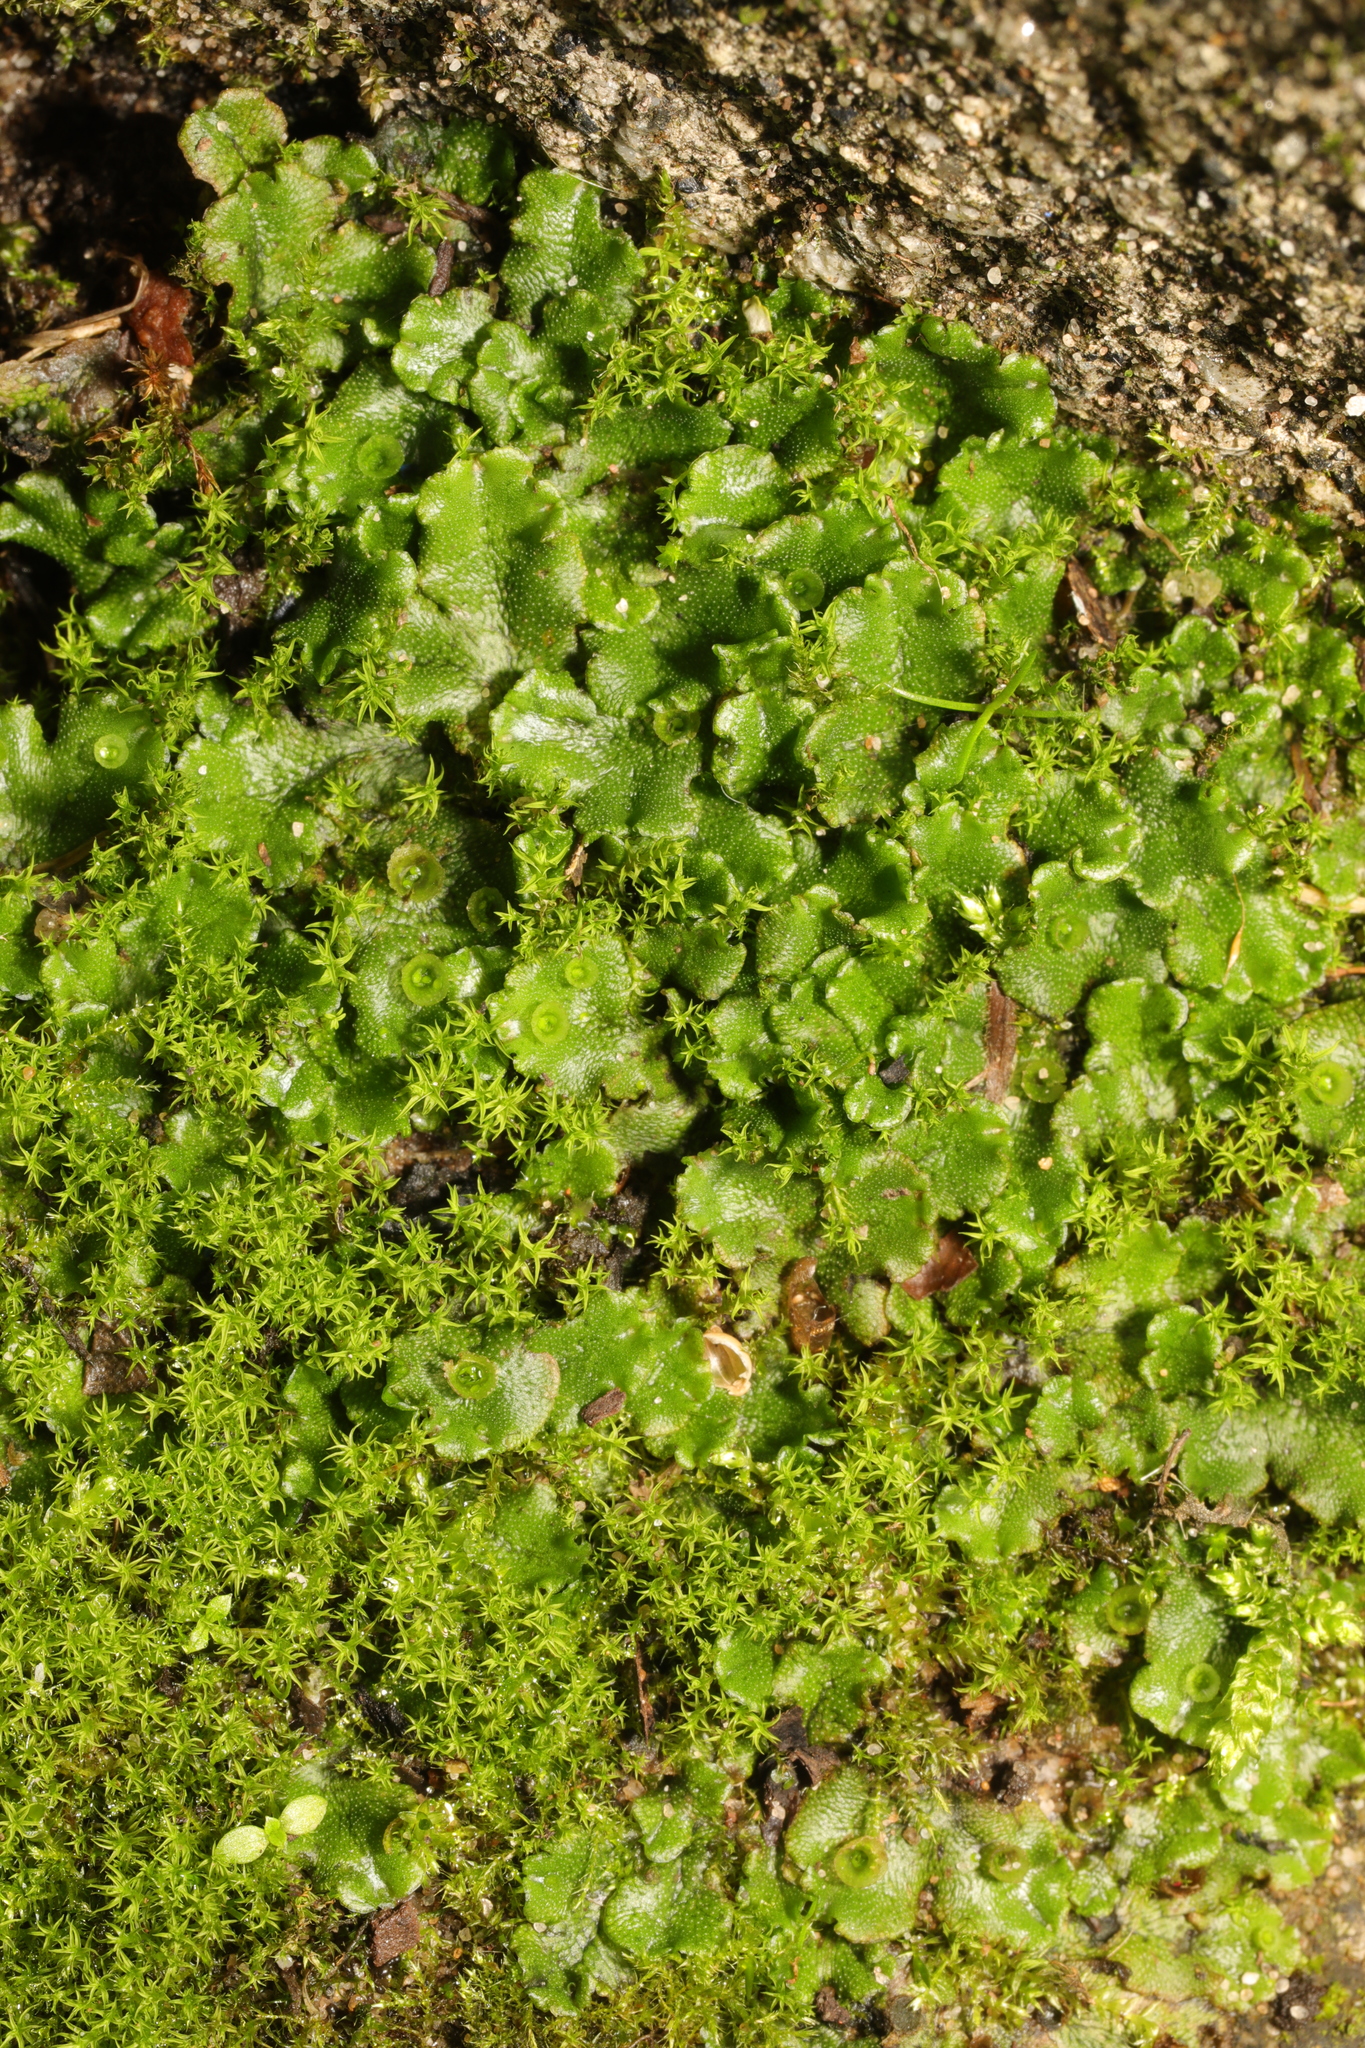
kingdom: Plantae
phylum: Marchantiophyta
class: Marchantiopsida
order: Marchantiales
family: Marchantiaceae
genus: Marchantia
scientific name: Marchantia polymorpha
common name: Common liverwort
